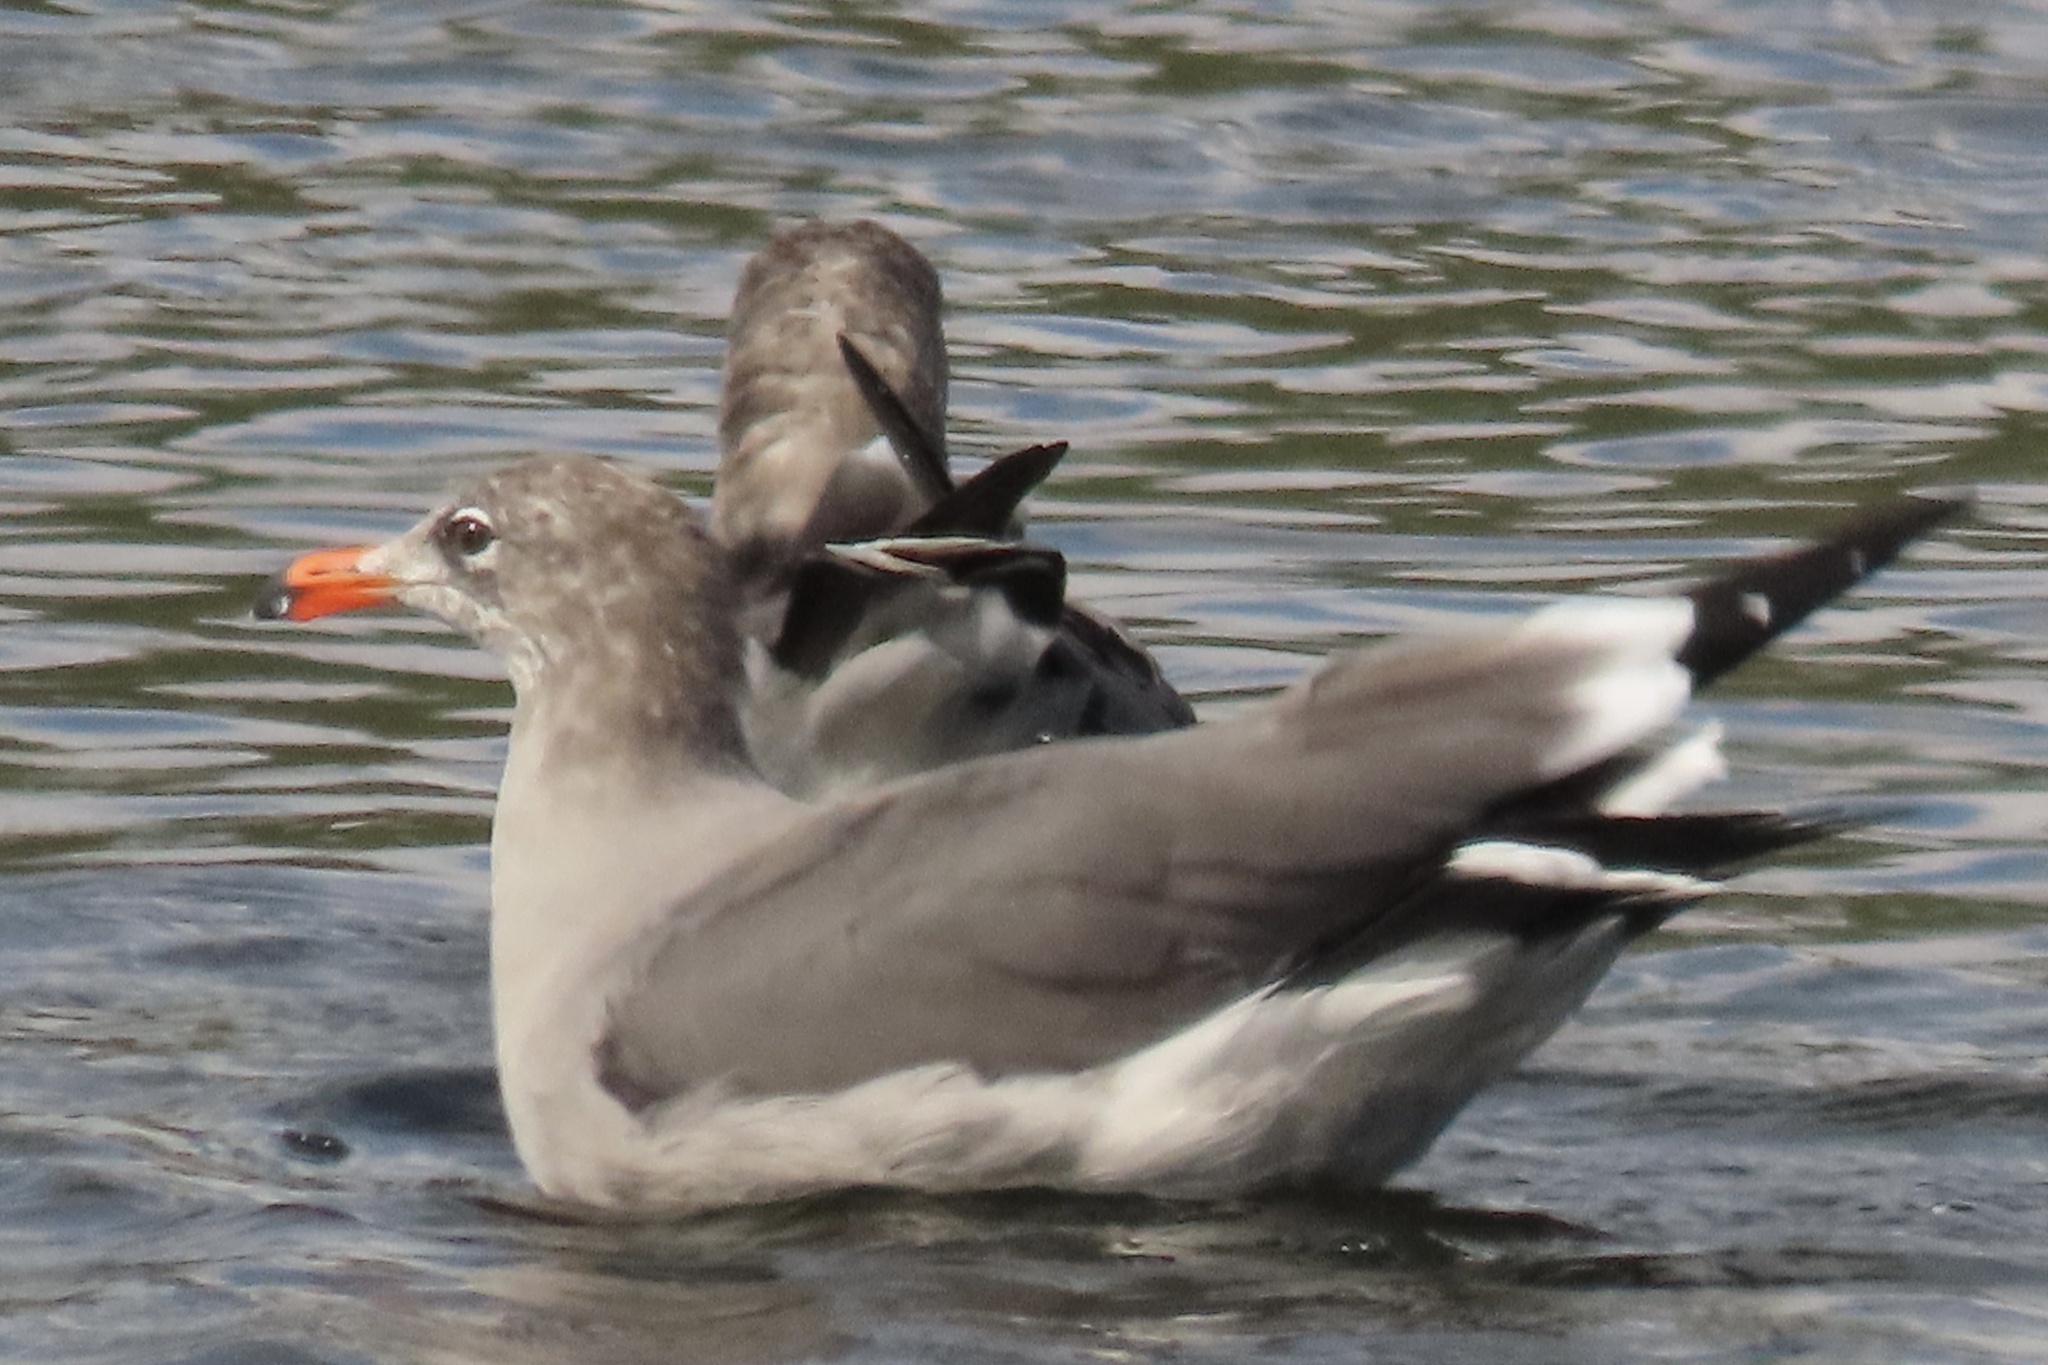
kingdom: Animalia
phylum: Chordata
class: Aves
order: Charadriiformes
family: Laridae
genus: Larus
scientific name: Larus heermanni
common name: Heermann's gull
